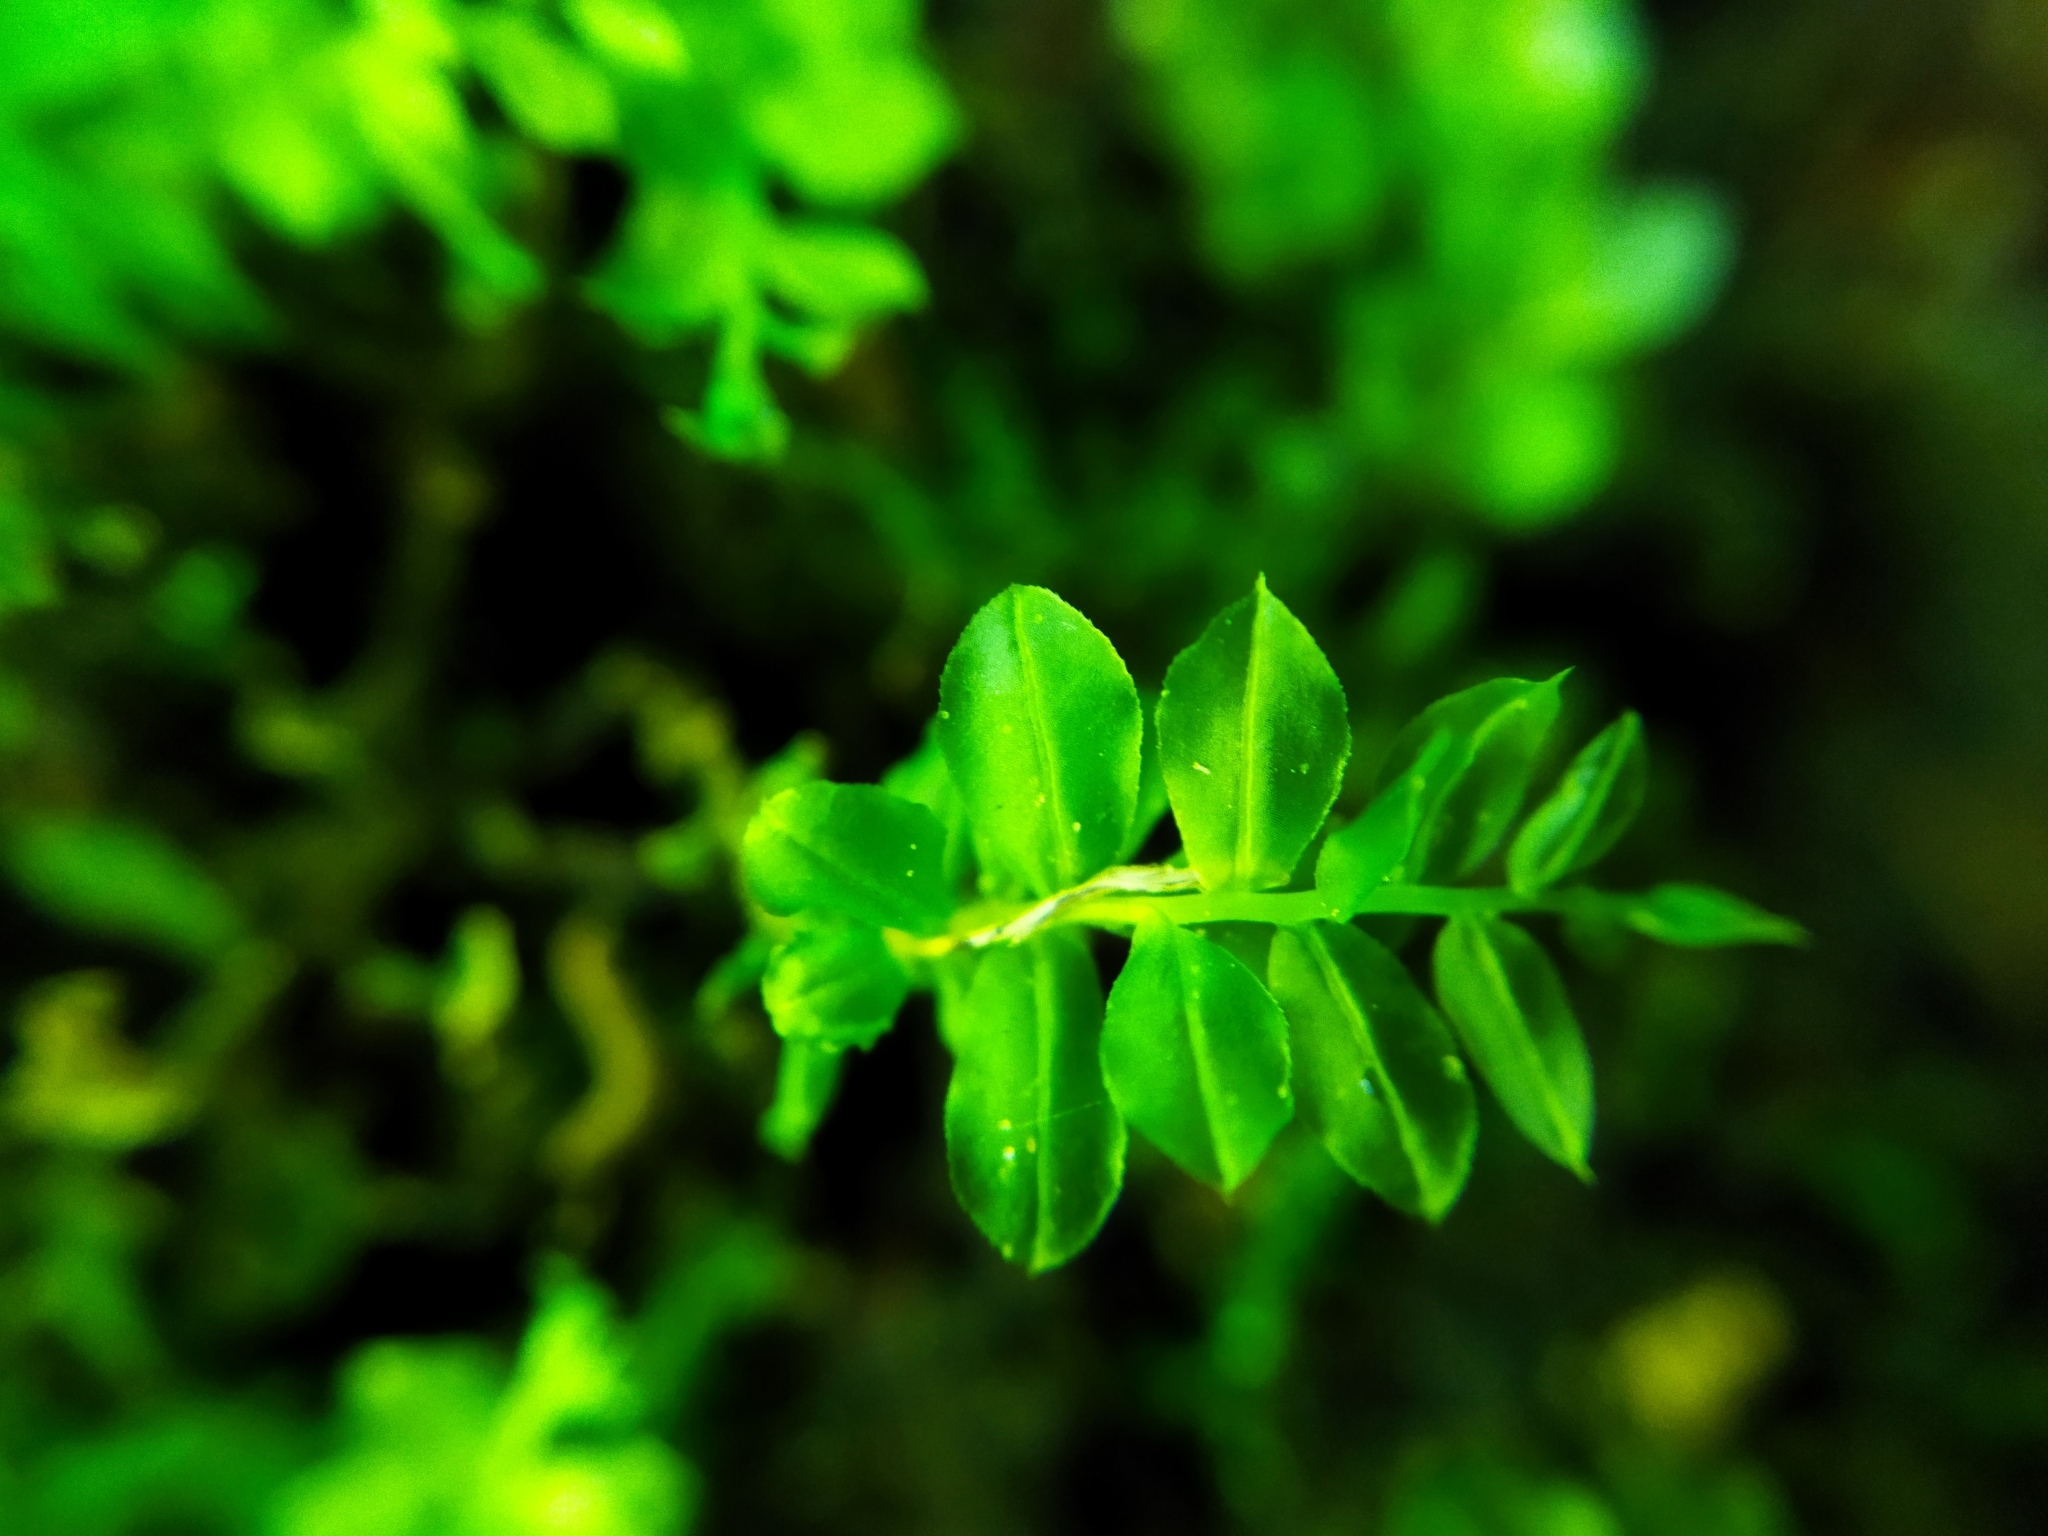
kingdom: Plantae
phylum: Bryophyta
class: Bryopsida
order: Bryales
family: Mniaceae
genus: Plagiomnium
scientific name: Plagiomnium cuspidatum
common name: Woodsy leafy moss
